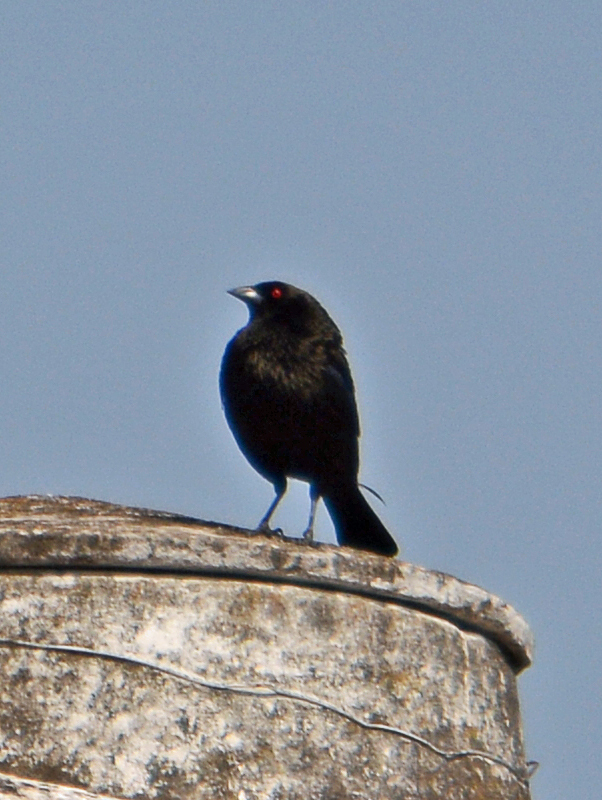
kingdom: Animalia
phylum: Chordata
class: Aves
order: Passeriformes
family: Icteridae
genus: Molothrus
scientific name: Molothrus aeneus
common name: Bronzed cowbird
